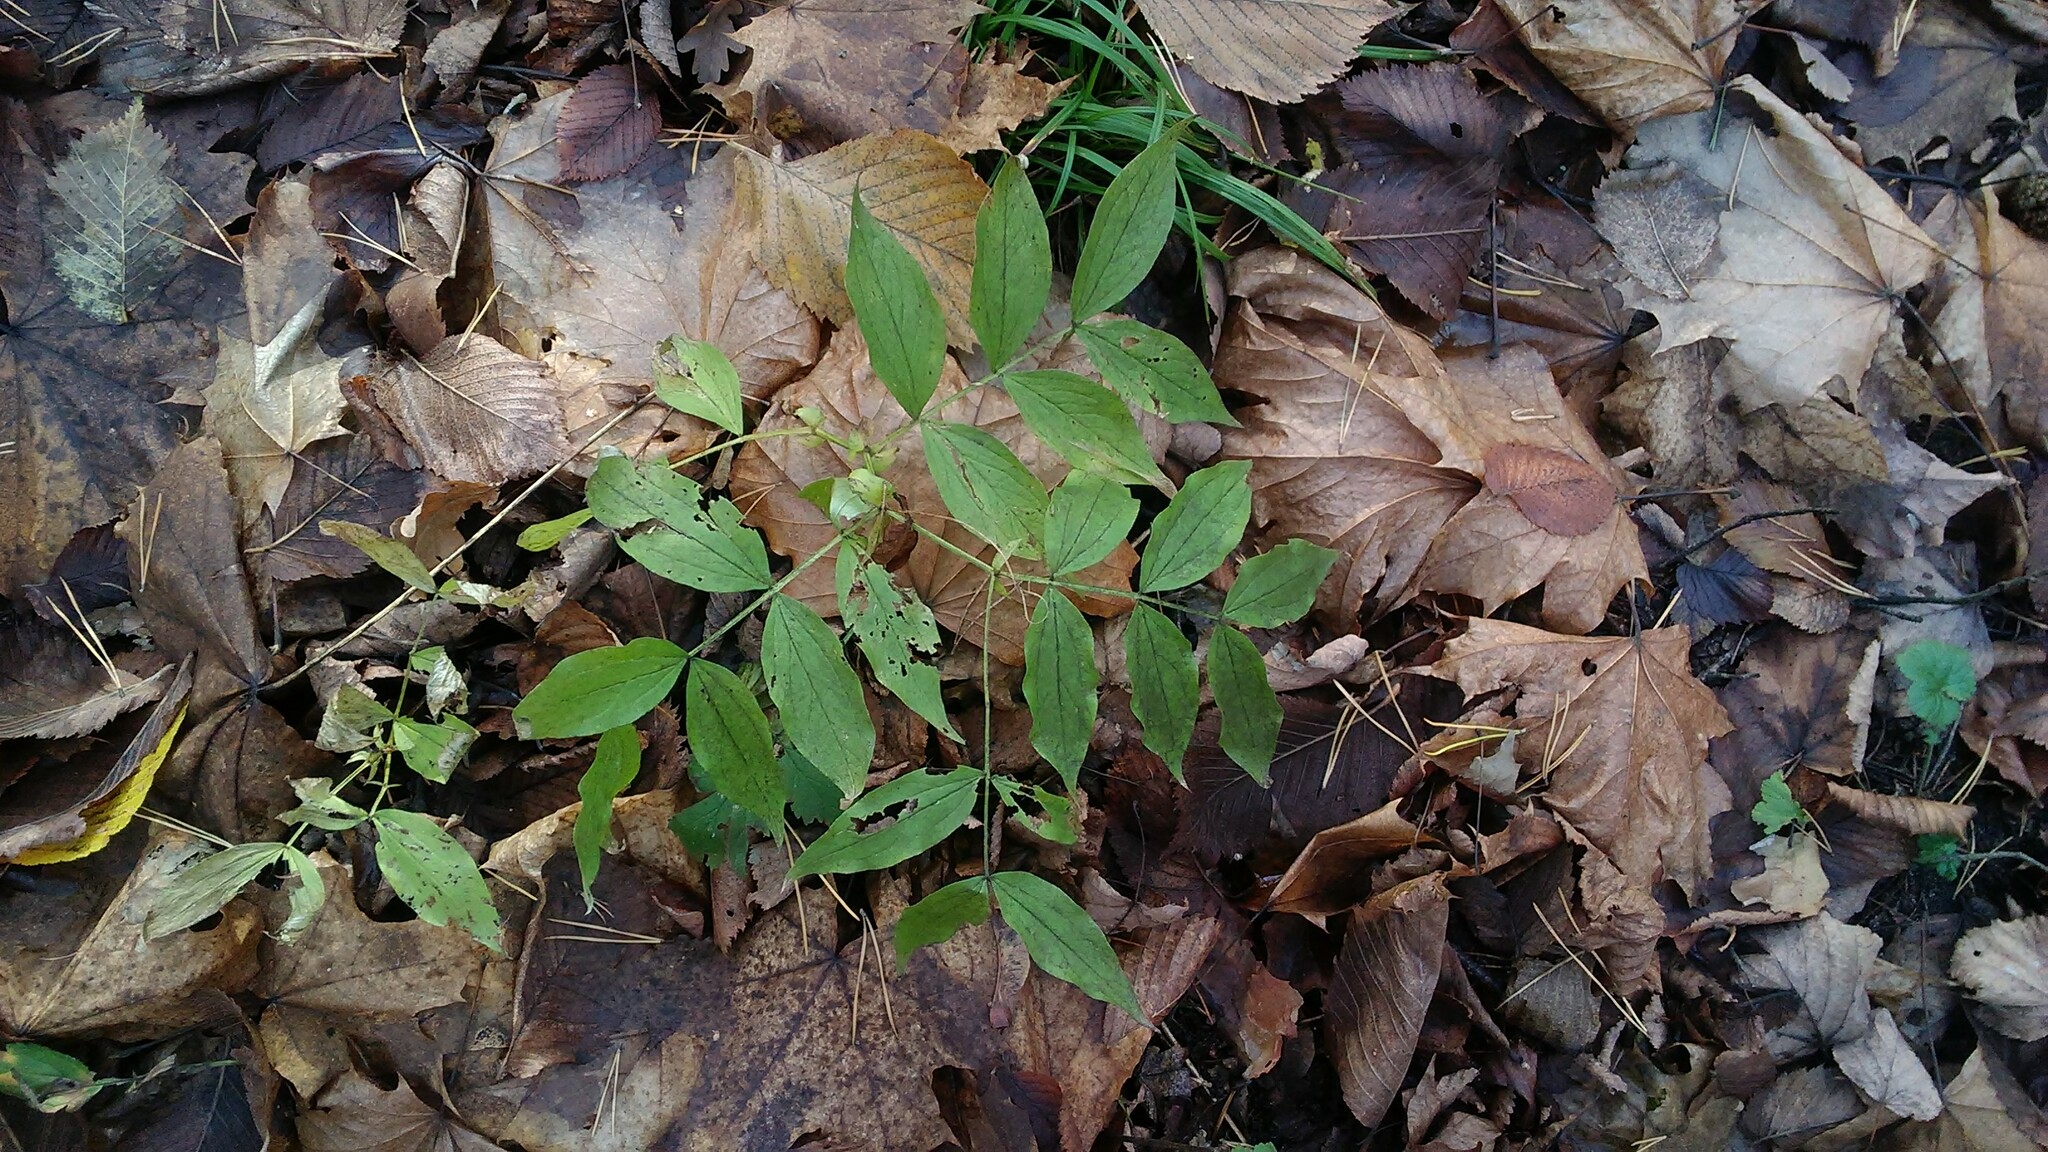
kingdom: Plantae
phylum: Tracheophyta
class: Magnoliopsida
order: Fabales
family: Fabaceae
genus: Lathyrus
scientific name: Lathyrus vernus
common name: Spring pea
